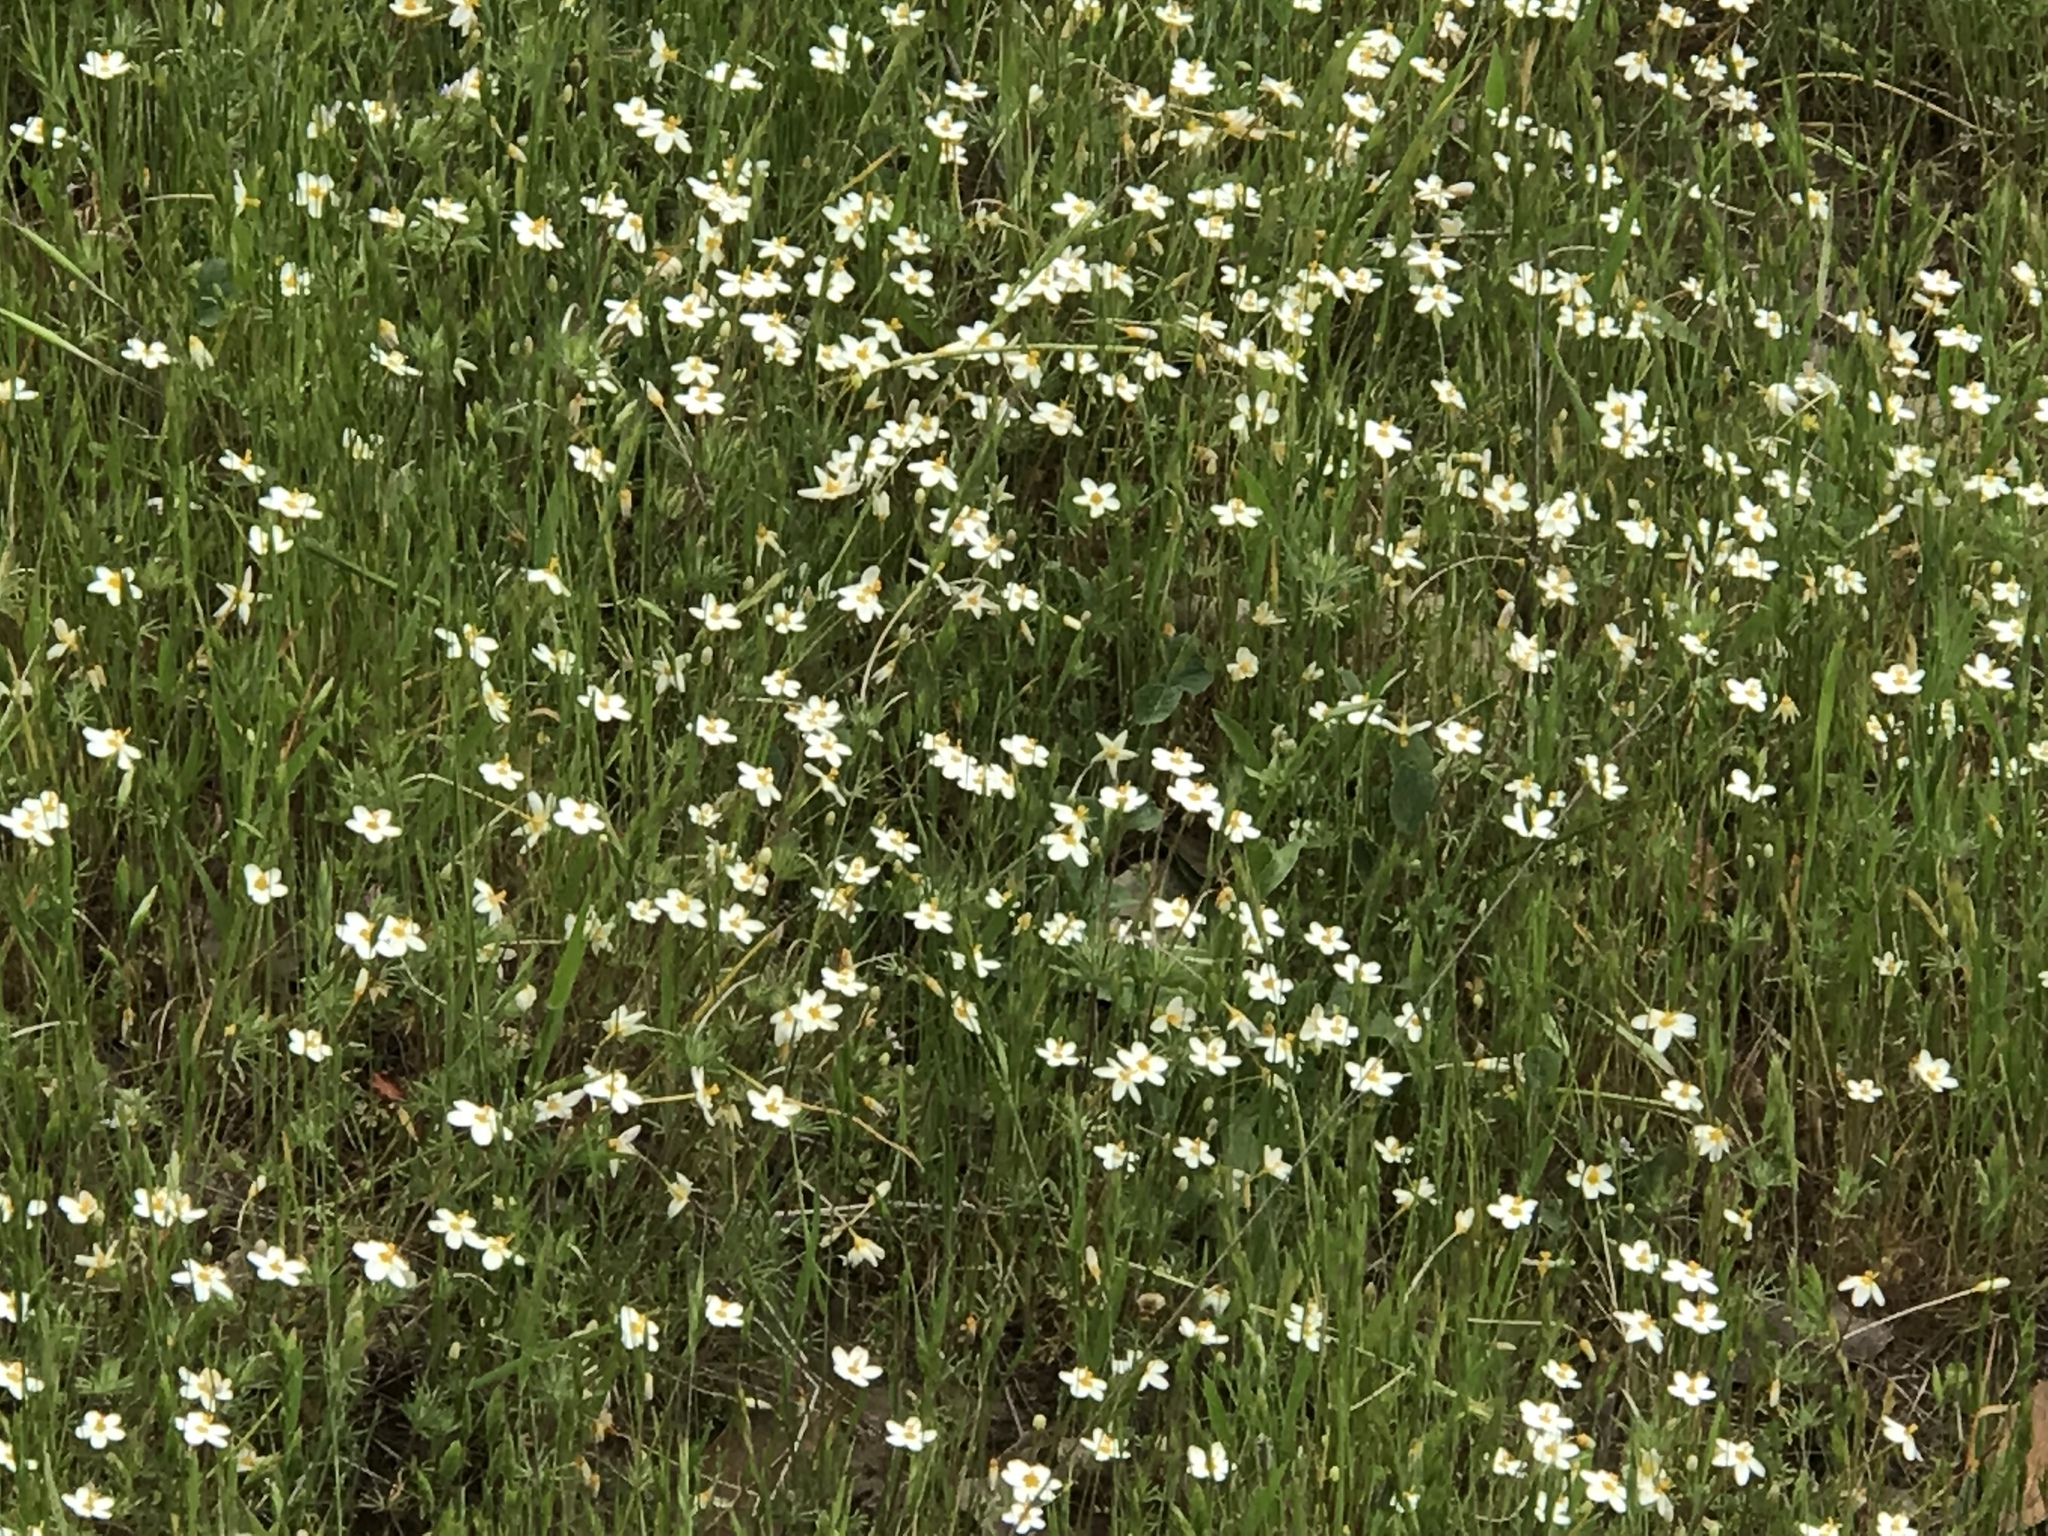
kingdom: Plantae
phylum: Tracheophyta
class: Magnoliopsida
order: Ericales
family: Polemoniaceae
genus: Leptosiphon
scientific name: Leptosiphon parviflorus
